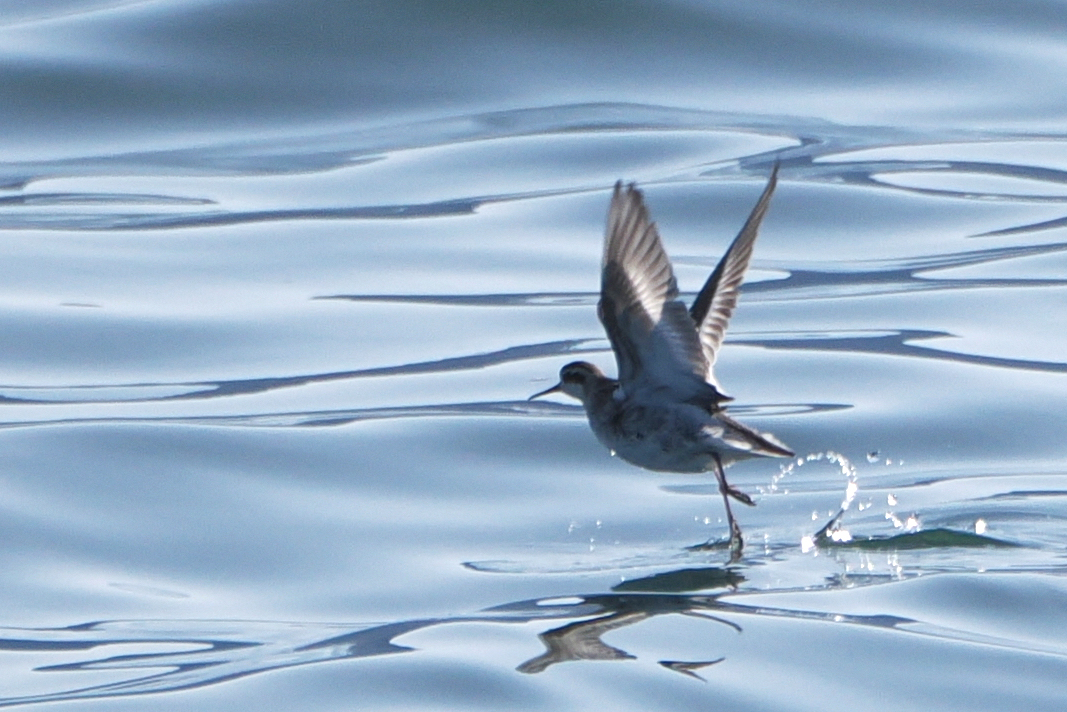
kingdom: Animalia
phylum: Chordata
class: Aves
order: Charadriiformes
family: Scolopacidae
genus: Phalaropus
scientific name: Phalaropus lobatus
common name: Red-necked phalarope
